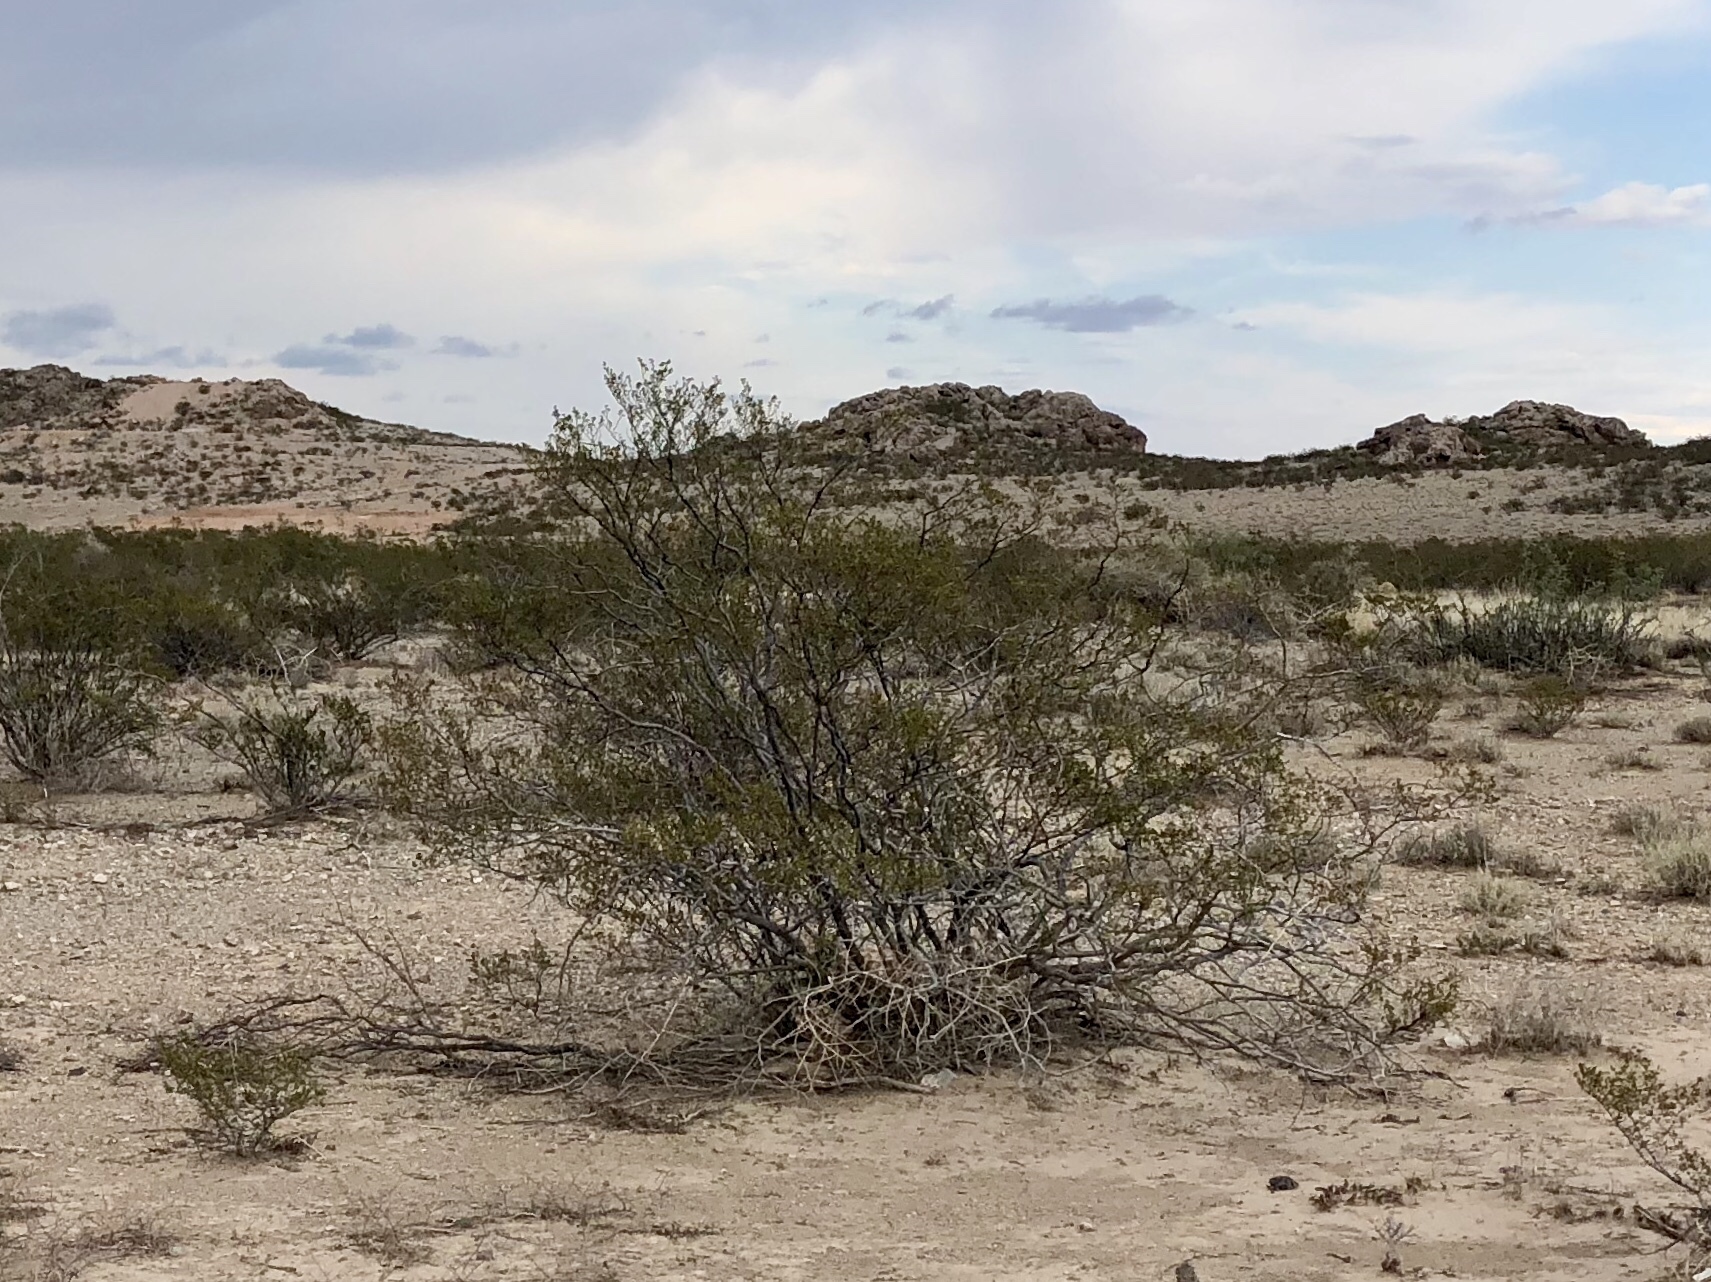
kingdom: Plantae
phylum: Tracheophyta
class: Magnoliopsida
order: Zygophyllales
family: Zygophyllaceae
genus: Larrea
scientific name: Larrea tridentata
